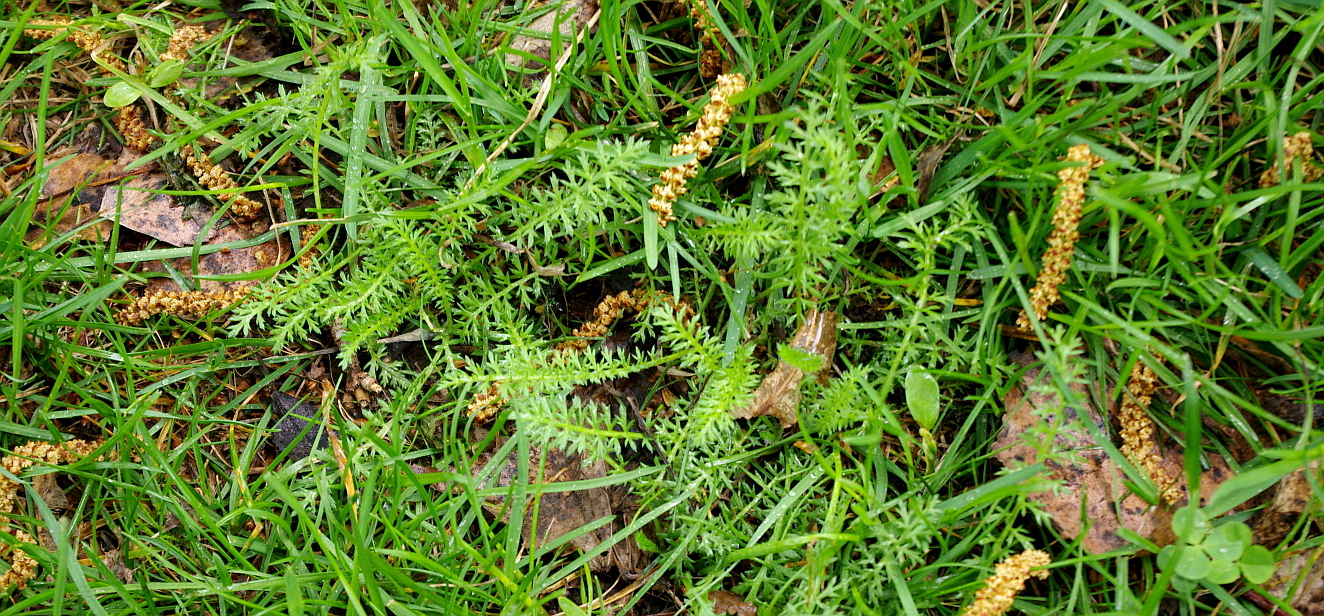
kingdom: Plantae
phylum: Tracheophyta
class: Magnoliopsida
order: Asterales
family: Asteraceae
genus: Achillea
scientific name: Achillea millefolium
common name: Yarrow
